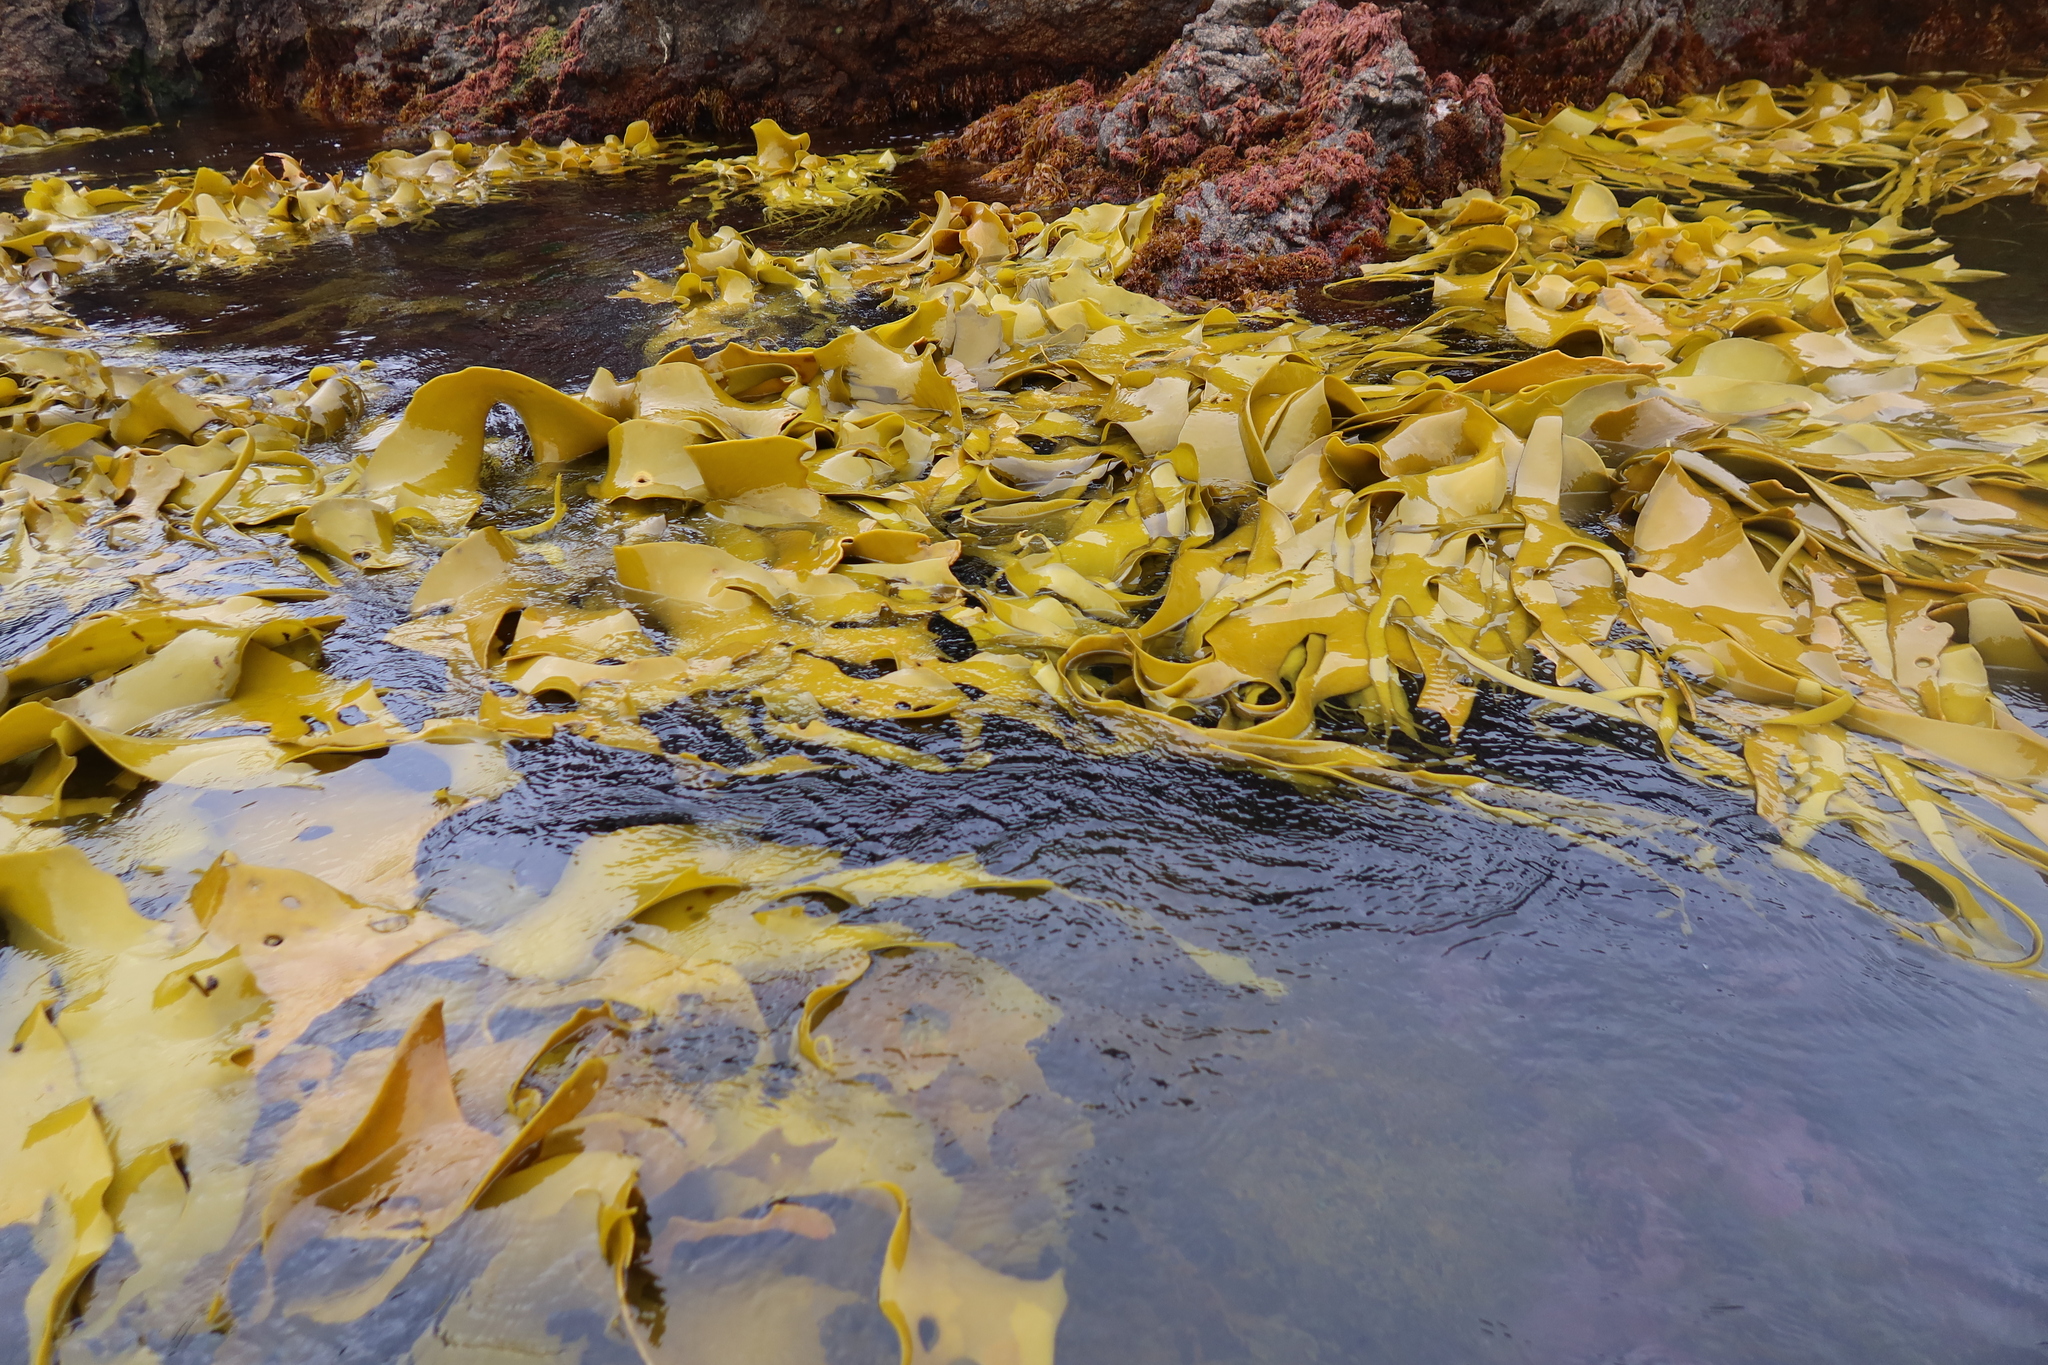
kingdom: Chromista
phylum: Ochrophyta
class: Phaeophyceae
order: Fucales
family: Durvillaeaceae
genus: Durvillaea
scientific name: Durvillaea antarctica
